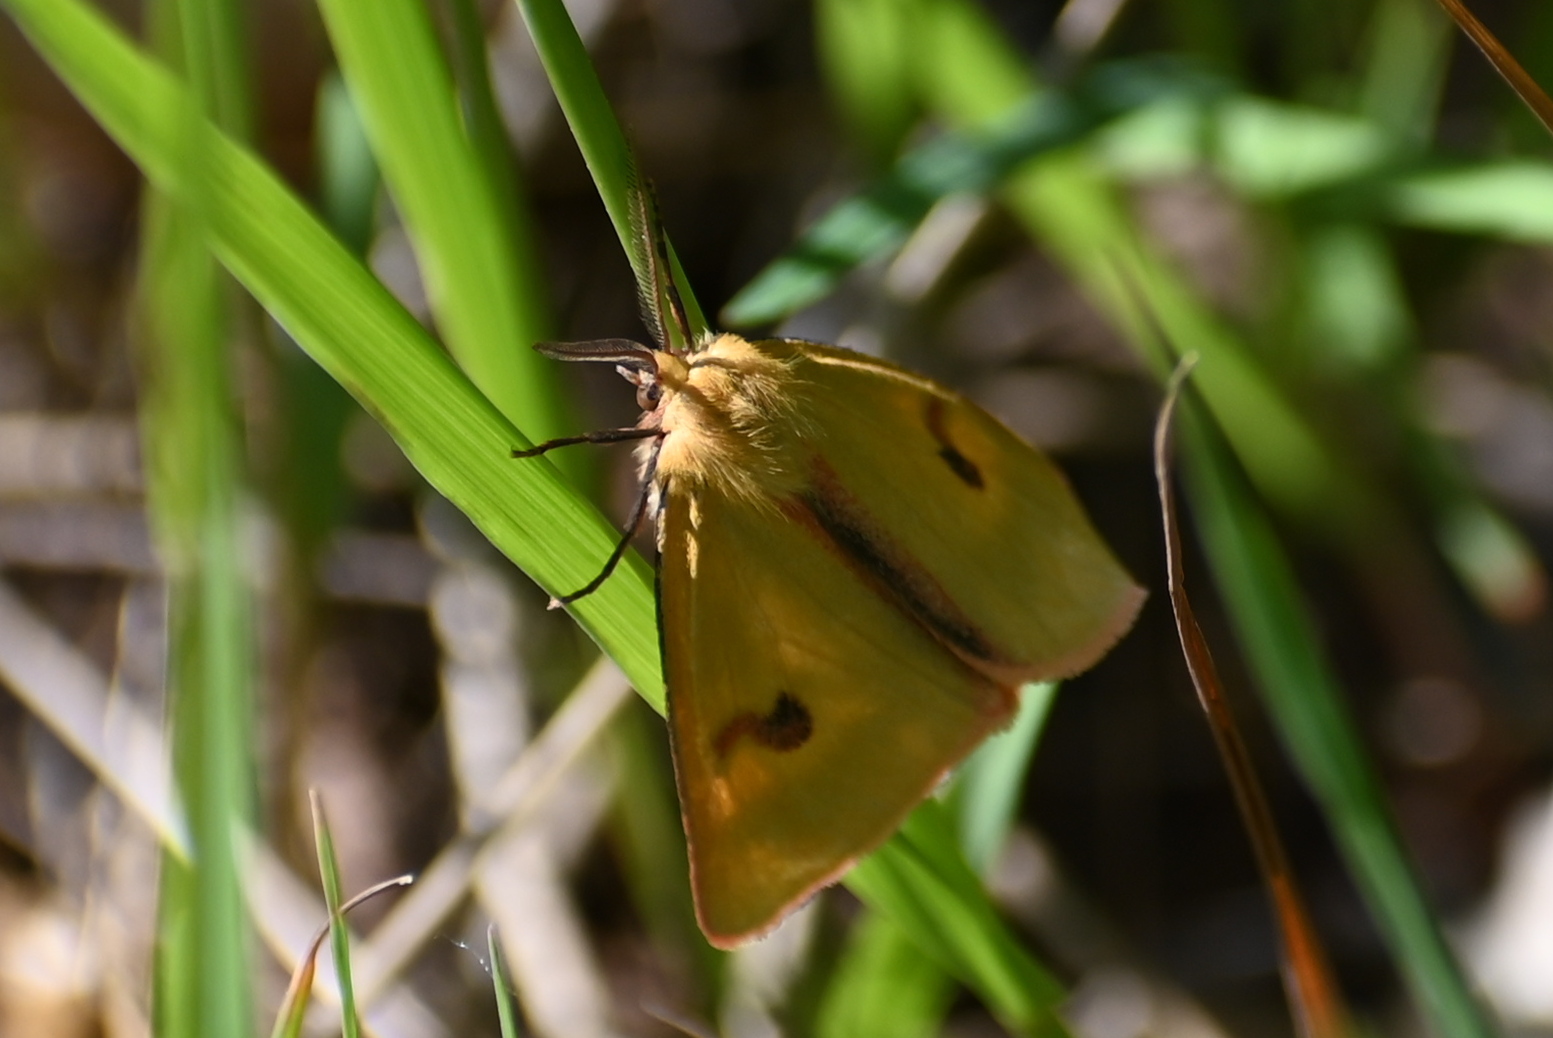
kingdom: Animalia
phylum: Arthropoda
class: Insecta
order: Lepidoptera
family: Erebidae
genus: Diacrisia
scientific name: Diacrisia sannio
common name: Clouded buff
